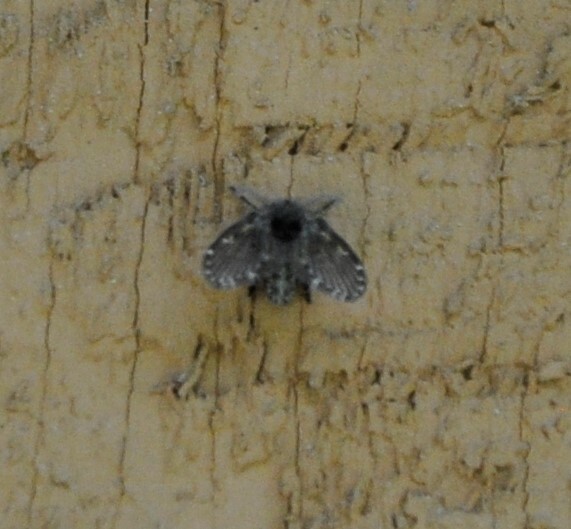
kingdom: Animalia
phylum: Arthropoda
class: Insecta
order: Diptera
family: Psychodidae
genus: Clogmia
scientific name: Clogmia albipunctatus
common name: White-spotted moth fly
